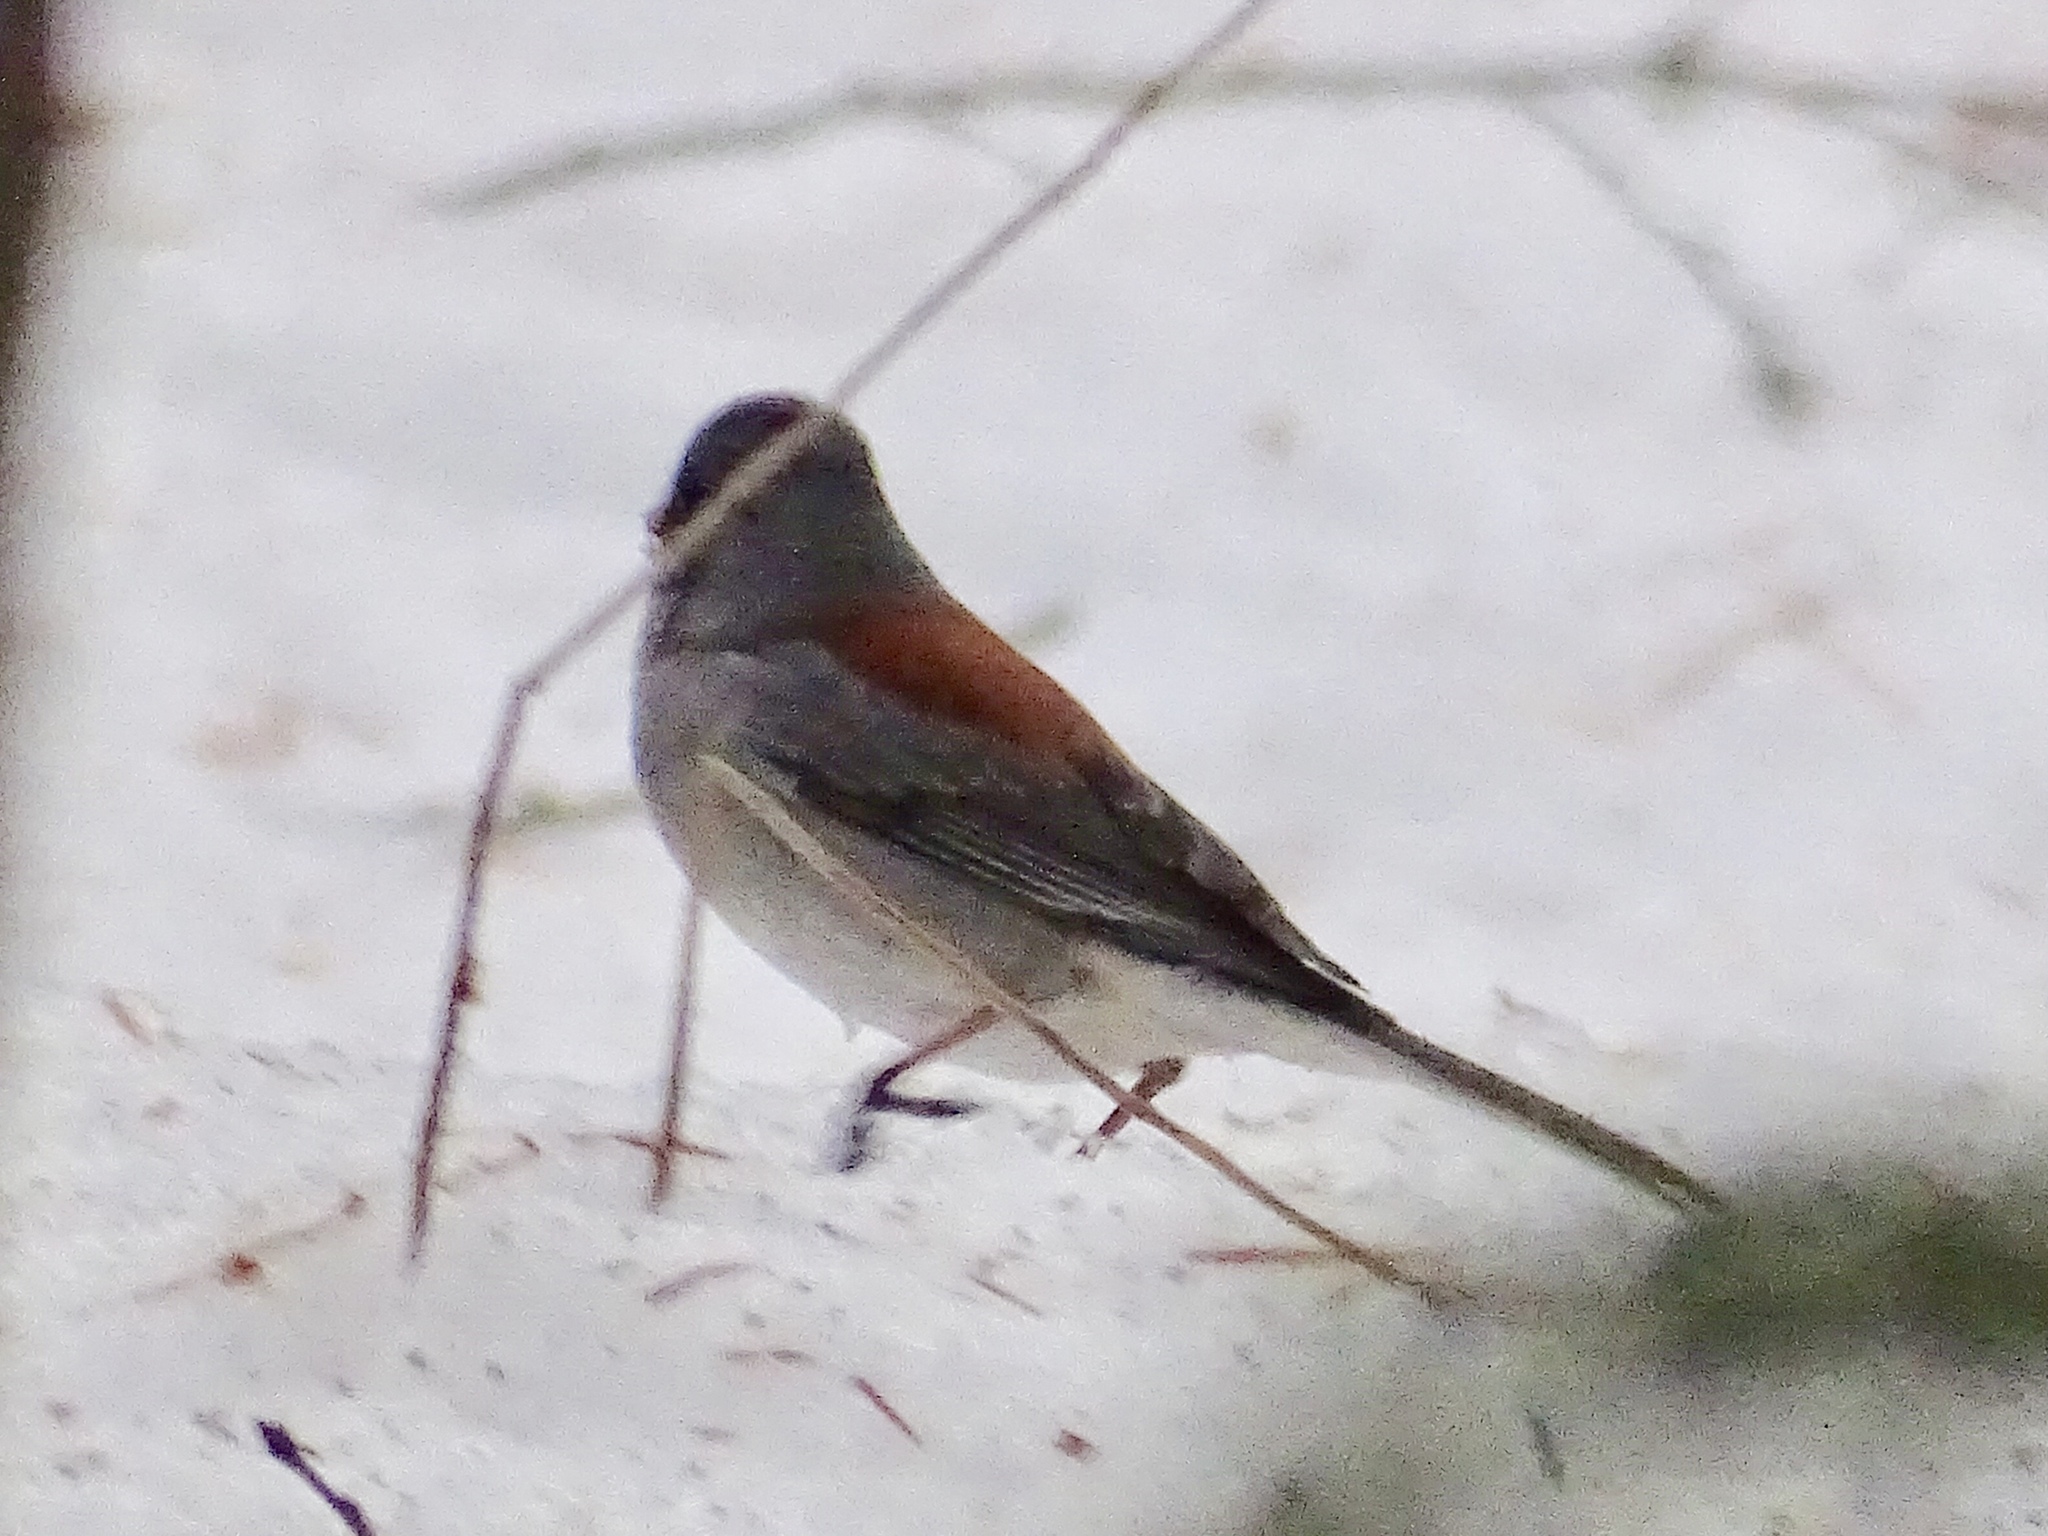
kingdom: Animalia
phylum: Chordata
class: Aves
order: Passeriformes
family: Passerellidae
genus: Junco
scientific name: Junco hyemalis
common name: Dark-eyed junco
